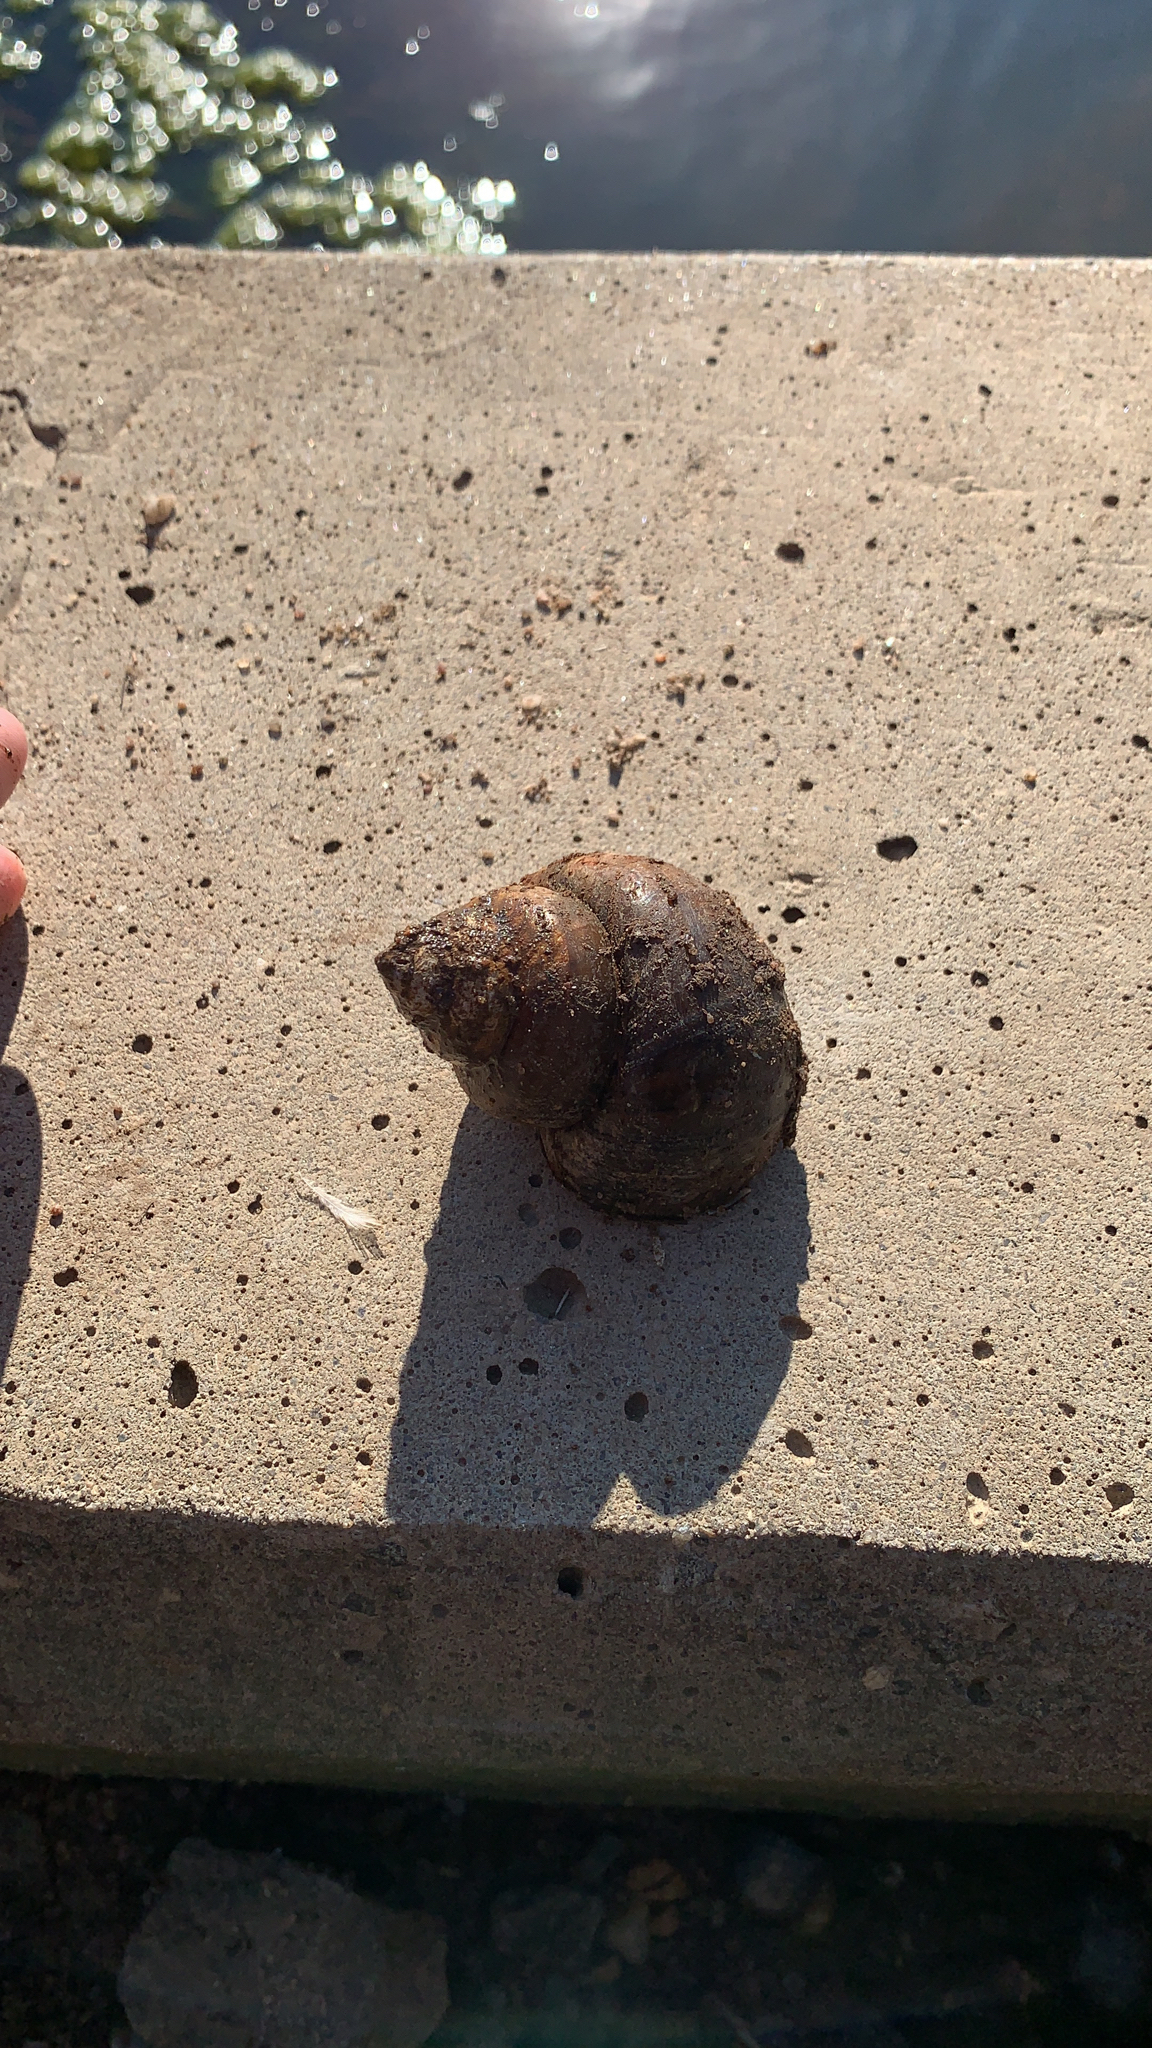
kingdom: Animalia
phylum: Mollusca
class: Gastropoda
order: Architaenioglossa
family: Viviparidae
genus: Cipangopaludina
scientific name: Cipangopaludina chinensis
